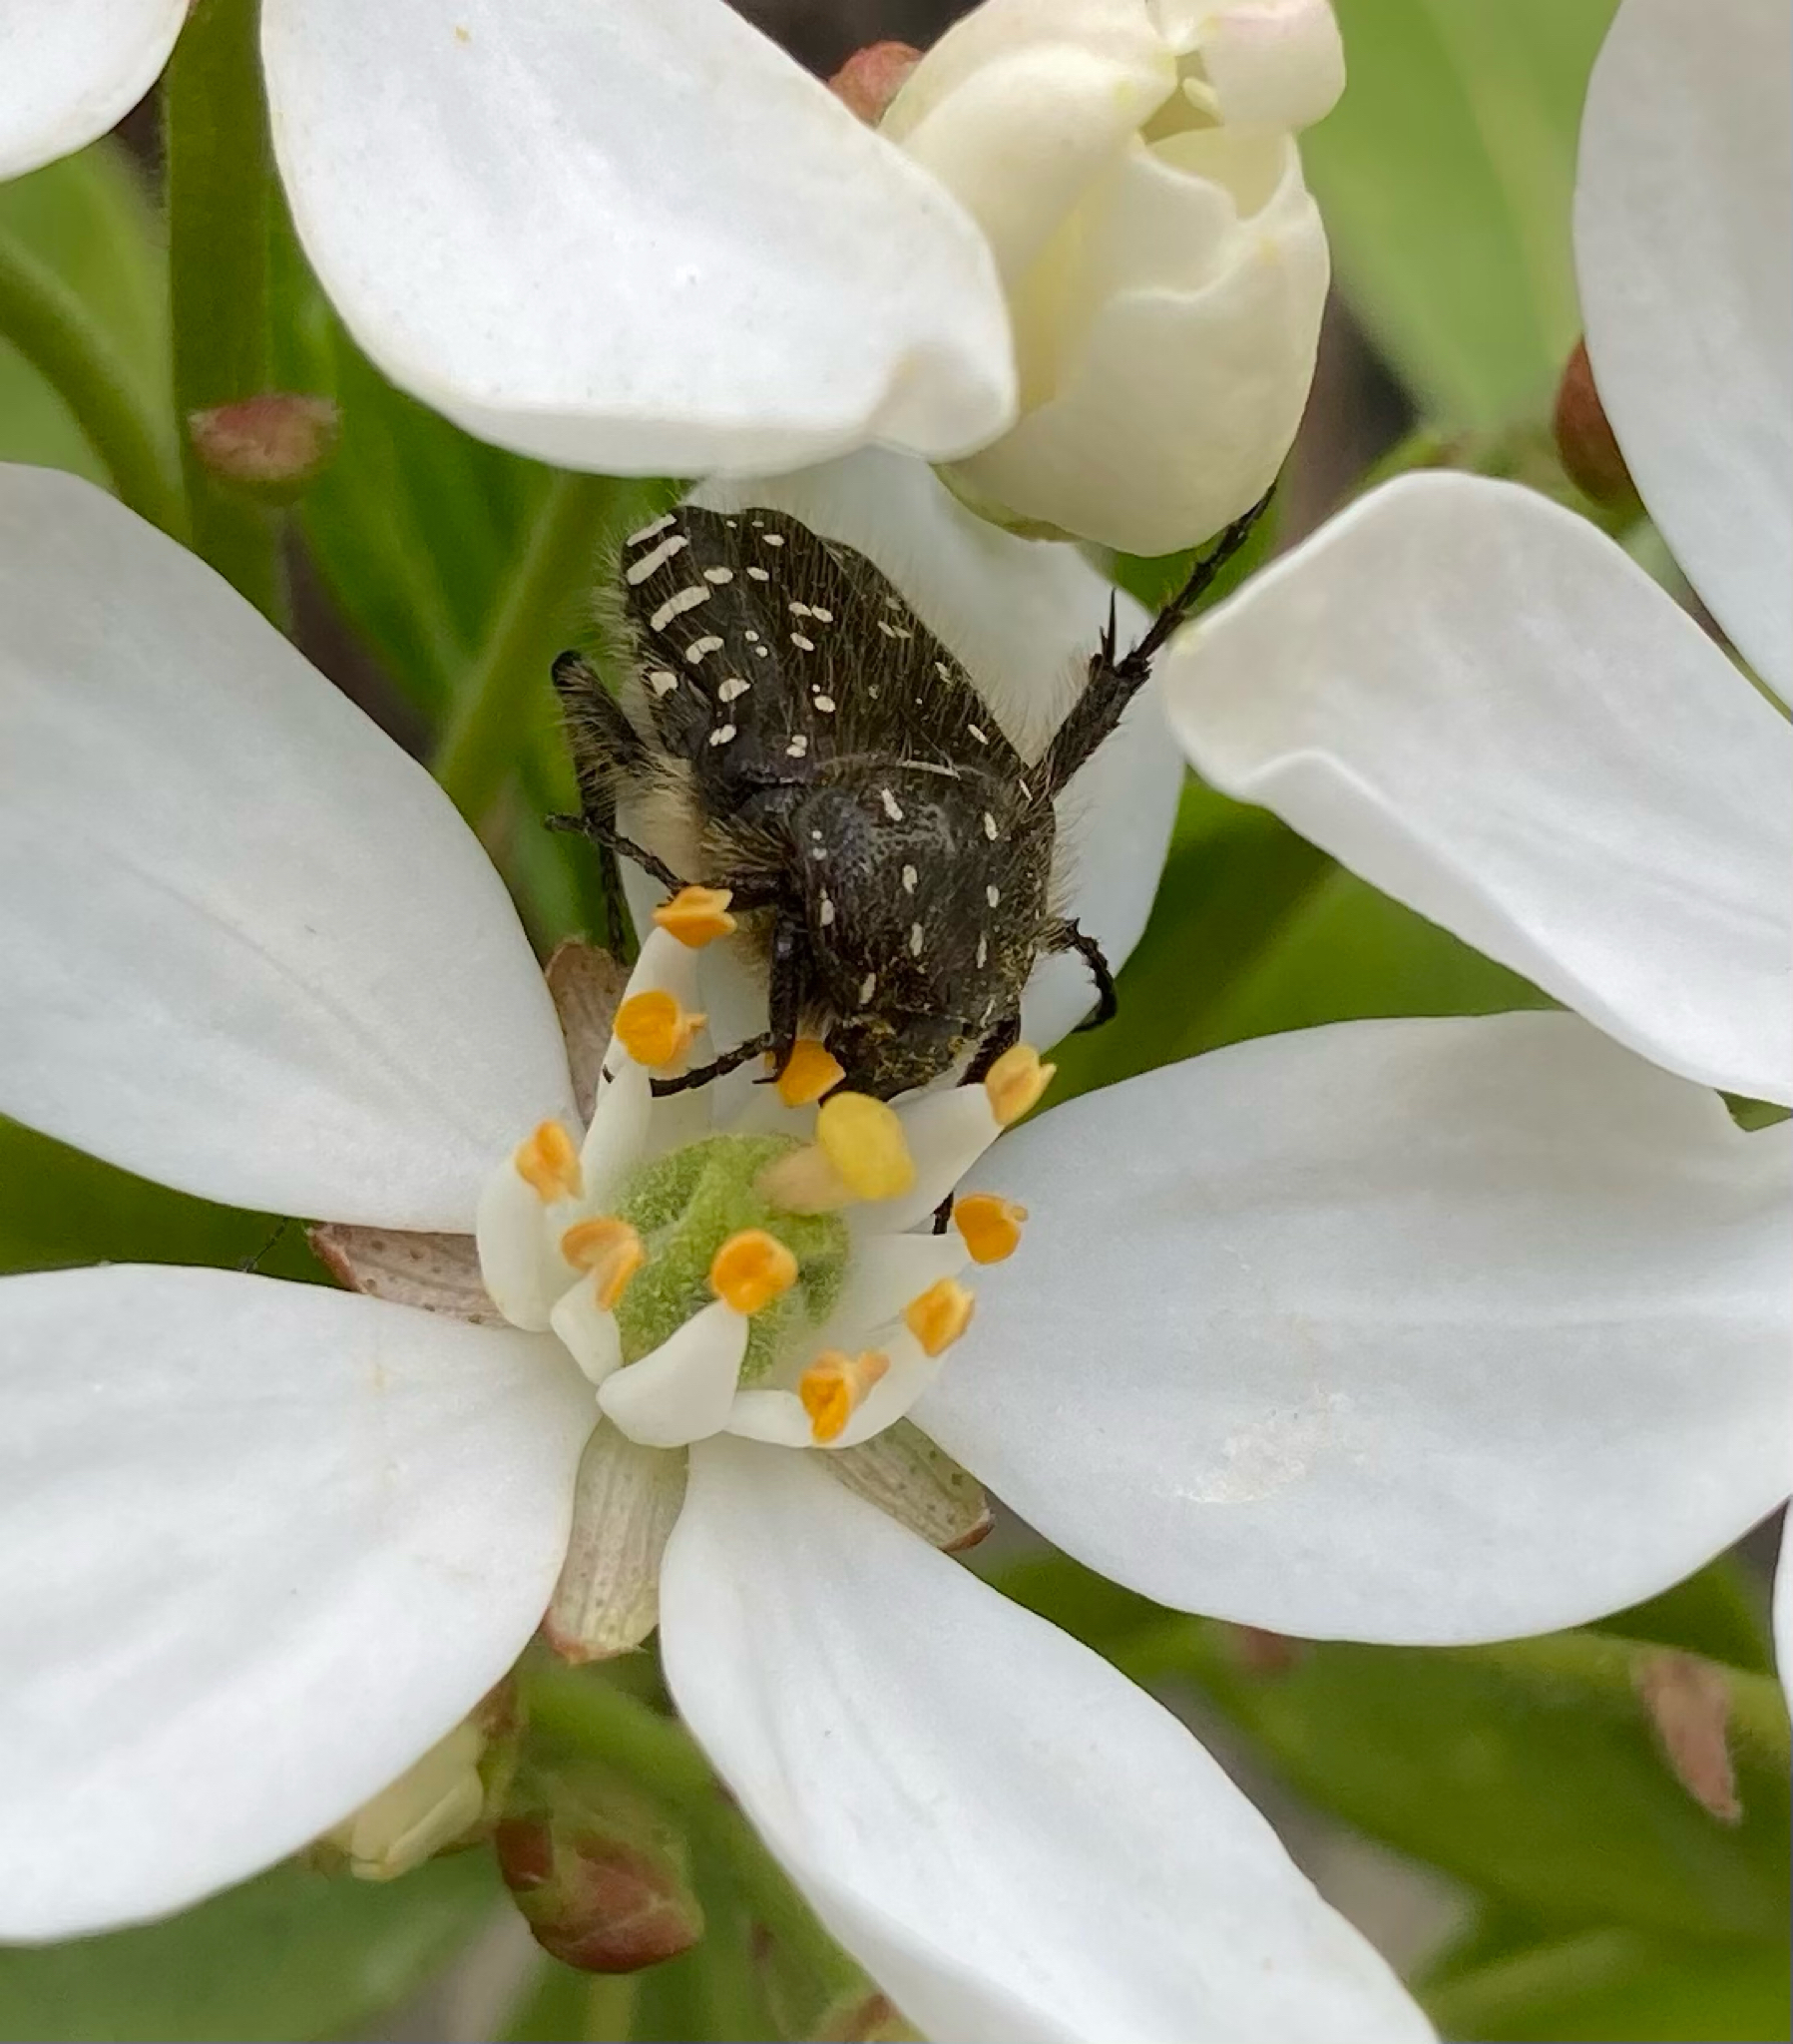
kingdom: Animalia
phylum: Arthropoda
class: Insecta
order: Coleoptera
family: Scarabaeidae
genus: Oxythyrea
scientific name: Oxythyrea funesta
